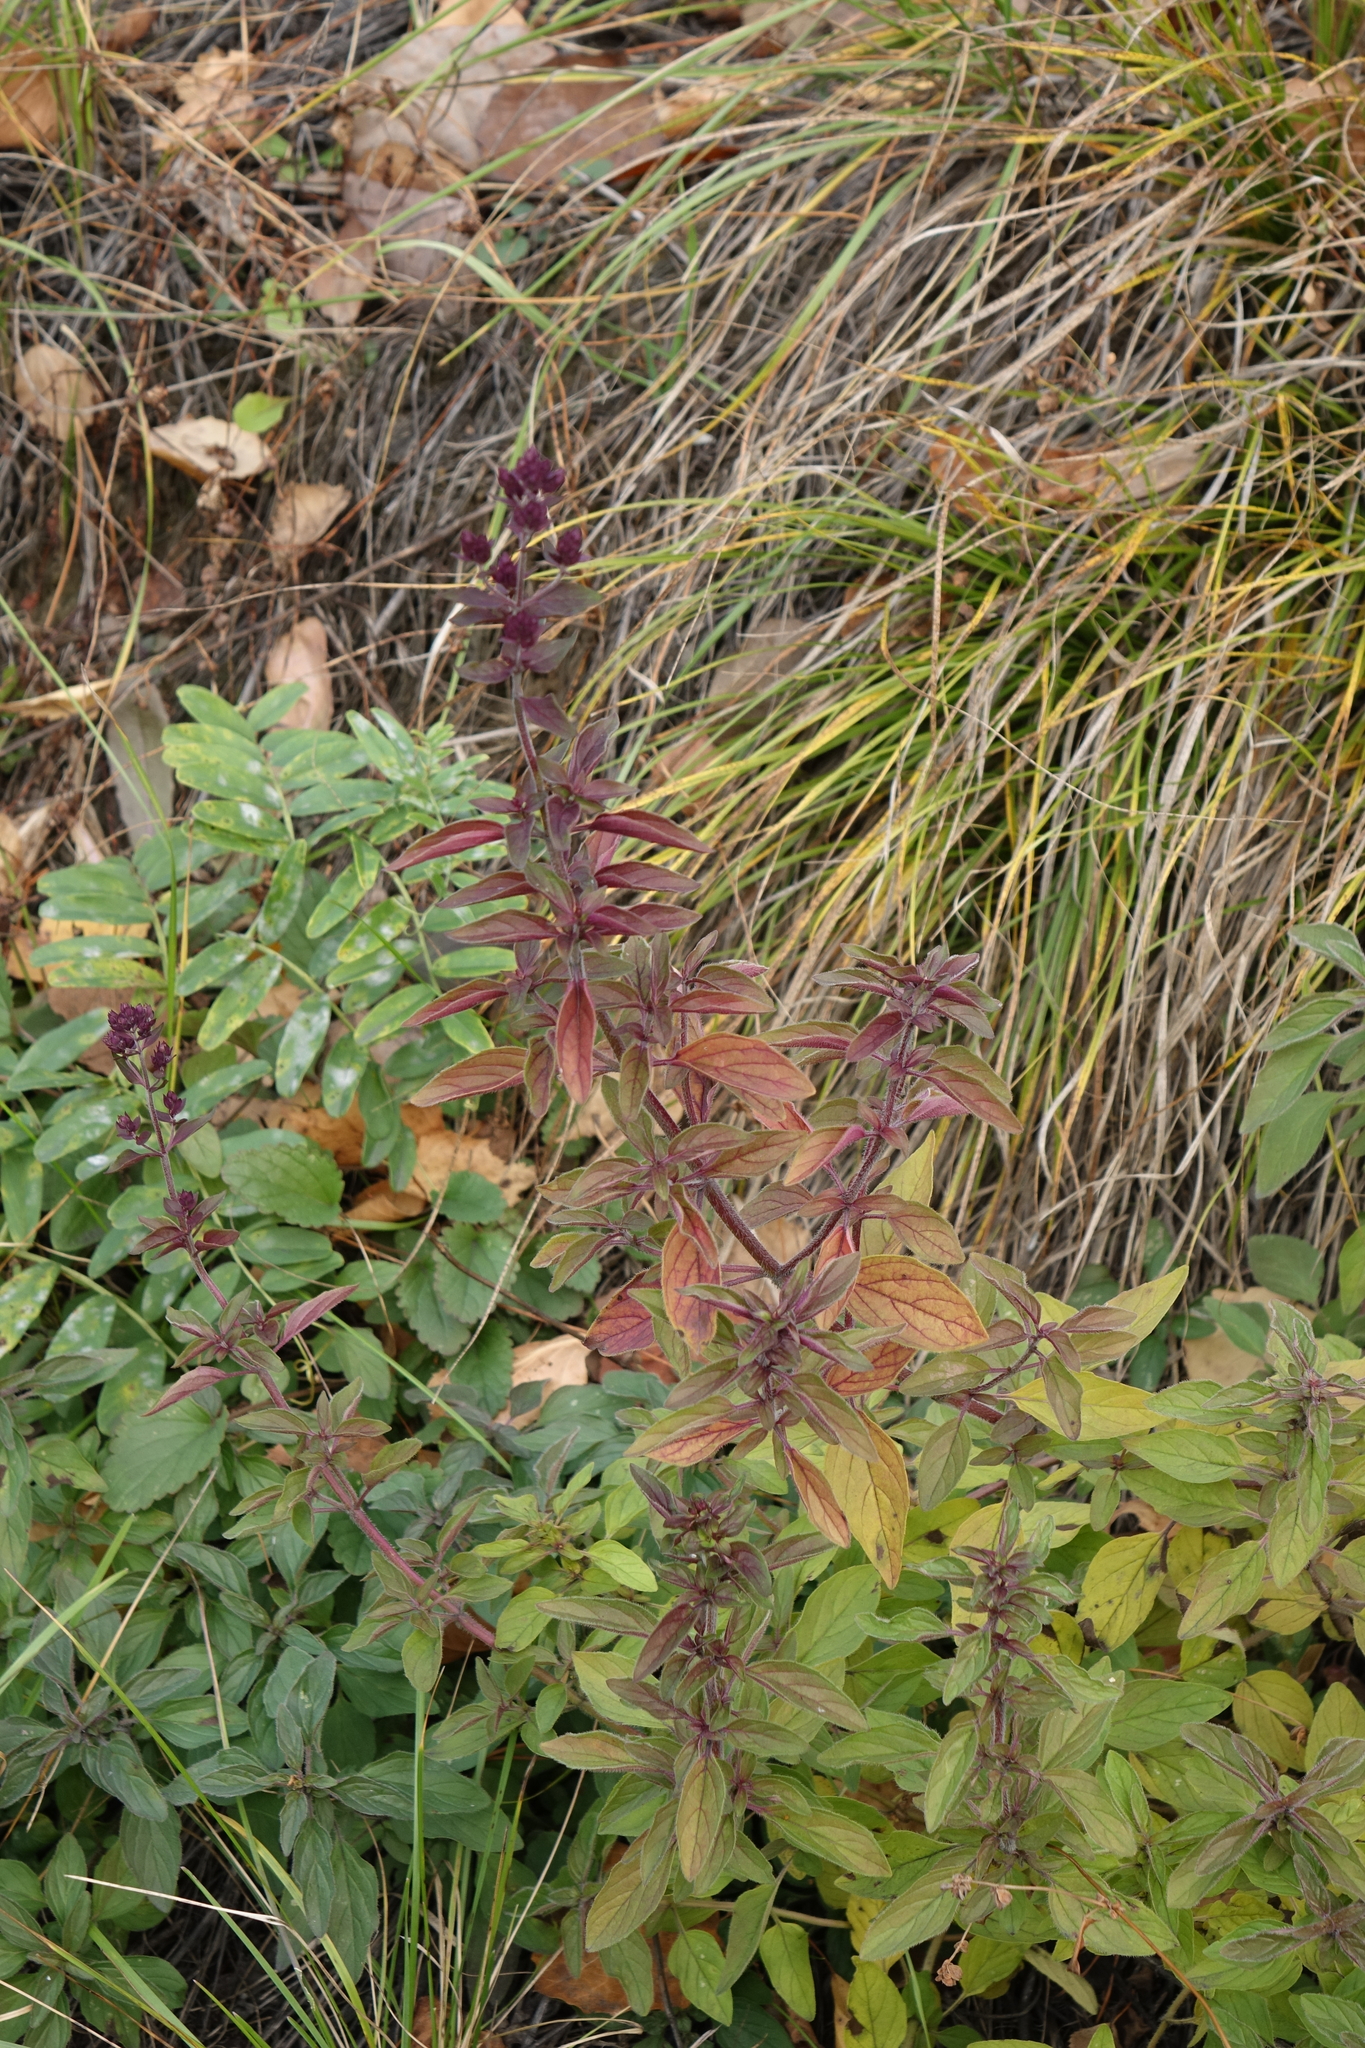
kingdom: Plantae
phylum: Tracheophyta
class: Magnoliopsida
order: Lamiales
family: Lamiaceae
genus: Origanum
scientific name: Origanum vulgare
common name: Wild marjoram
